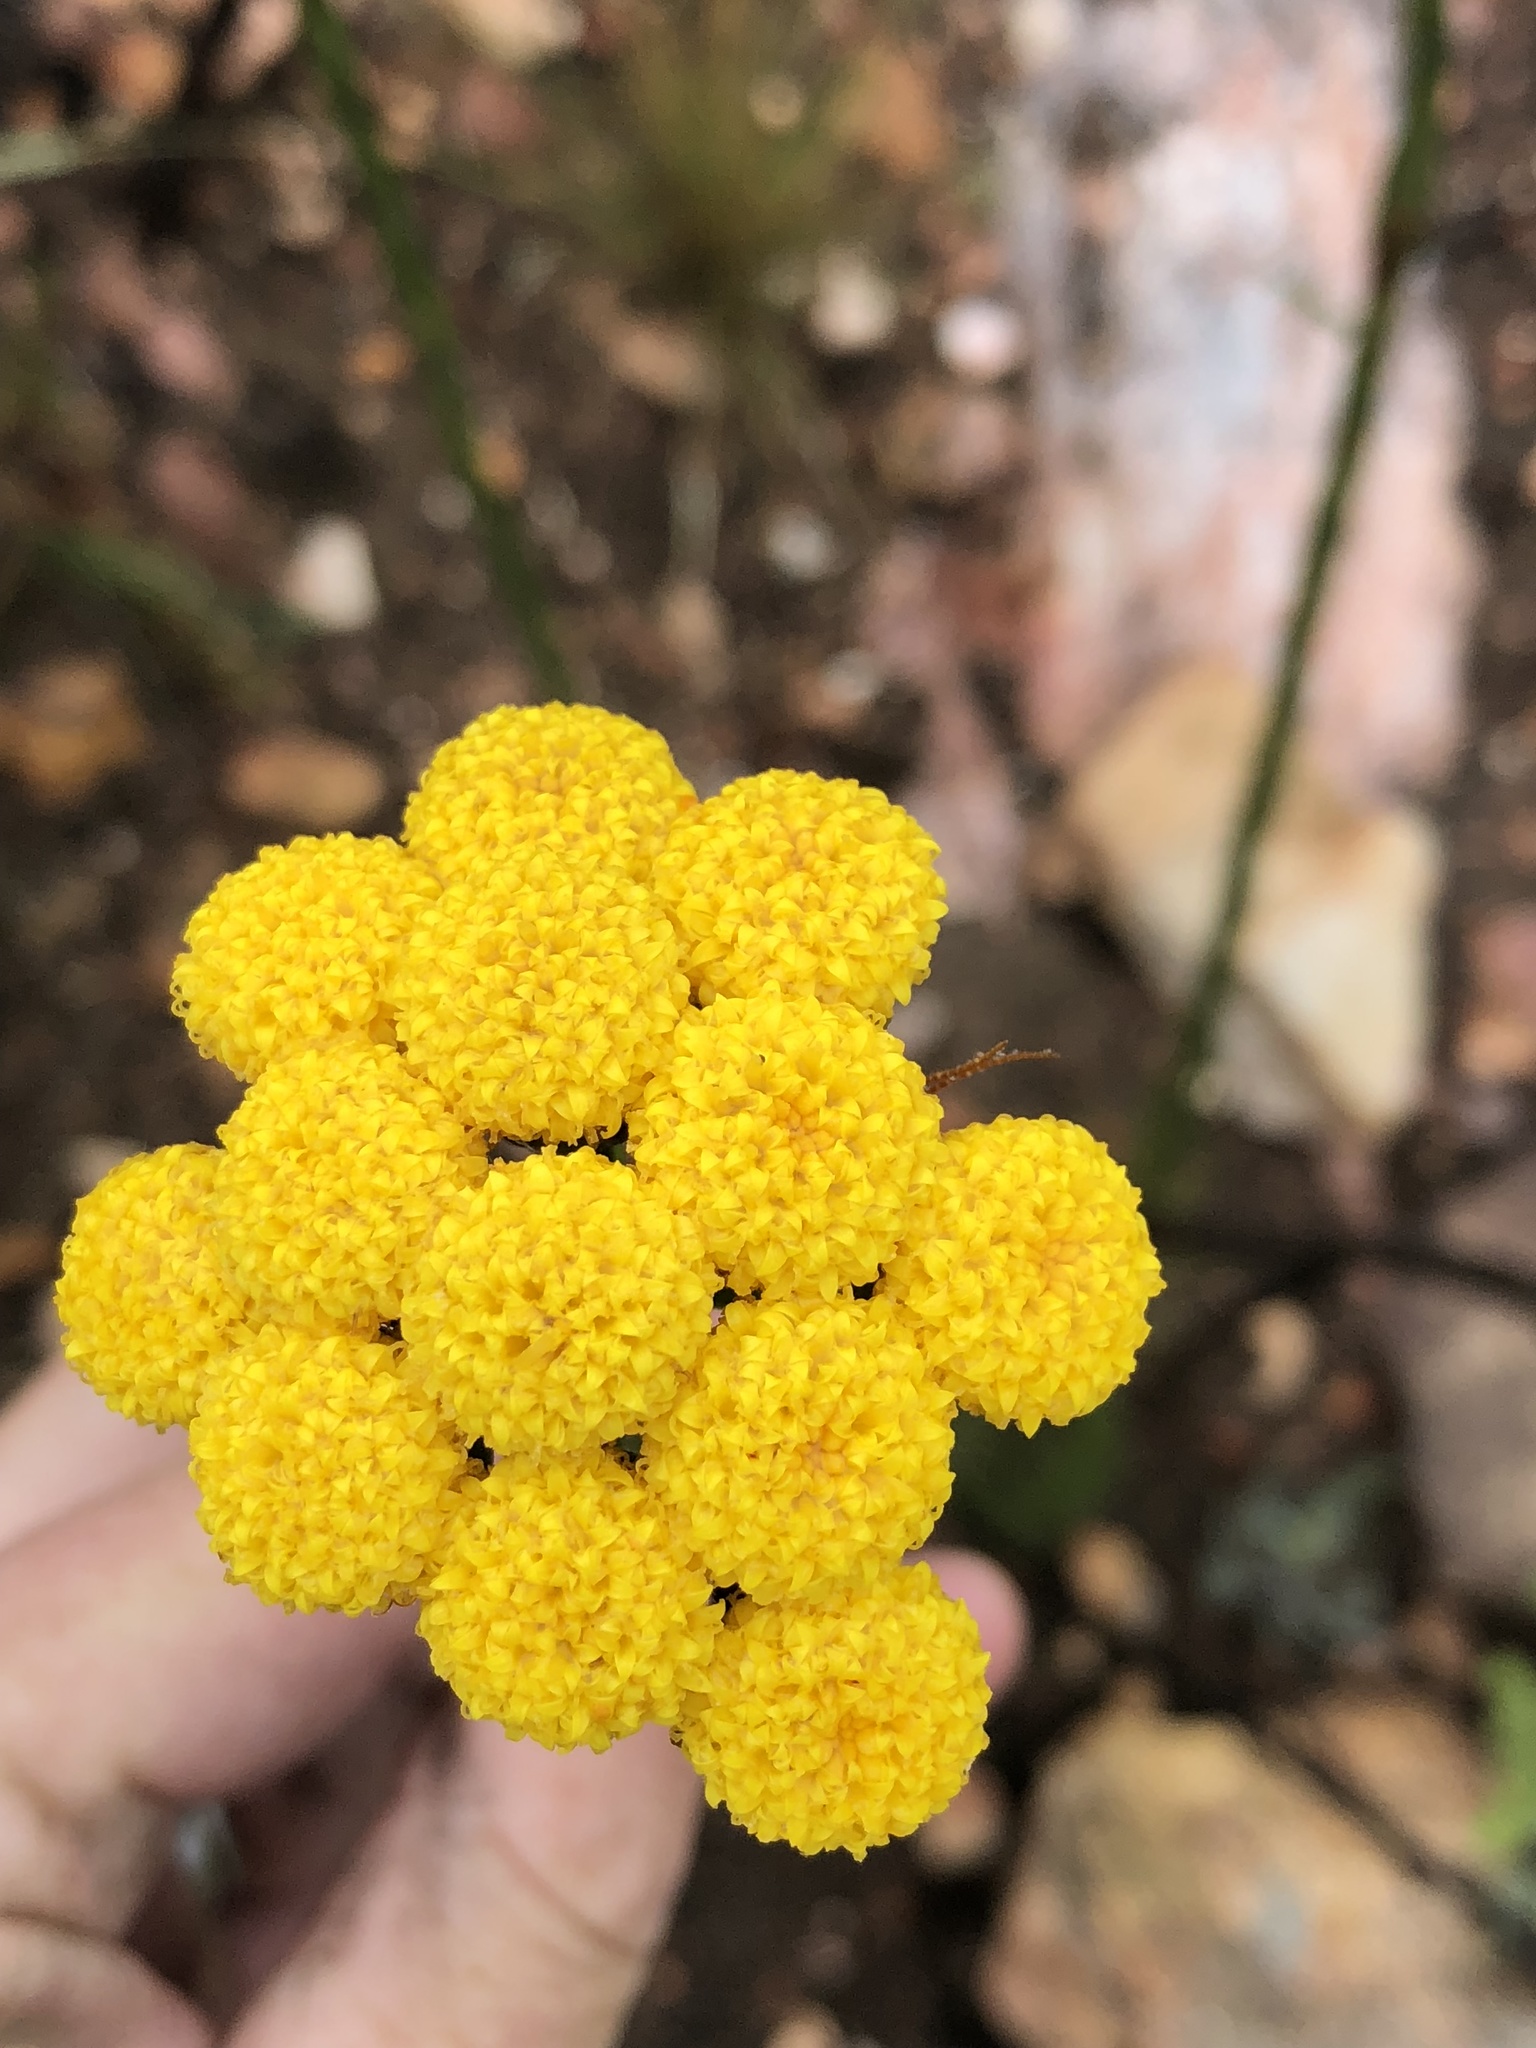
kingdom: Plantae
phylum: Tracheophyta
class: Magnoliopsida
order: Asterales
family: Asteraceae
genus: Athanasia
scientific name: Athanasia linifolia
